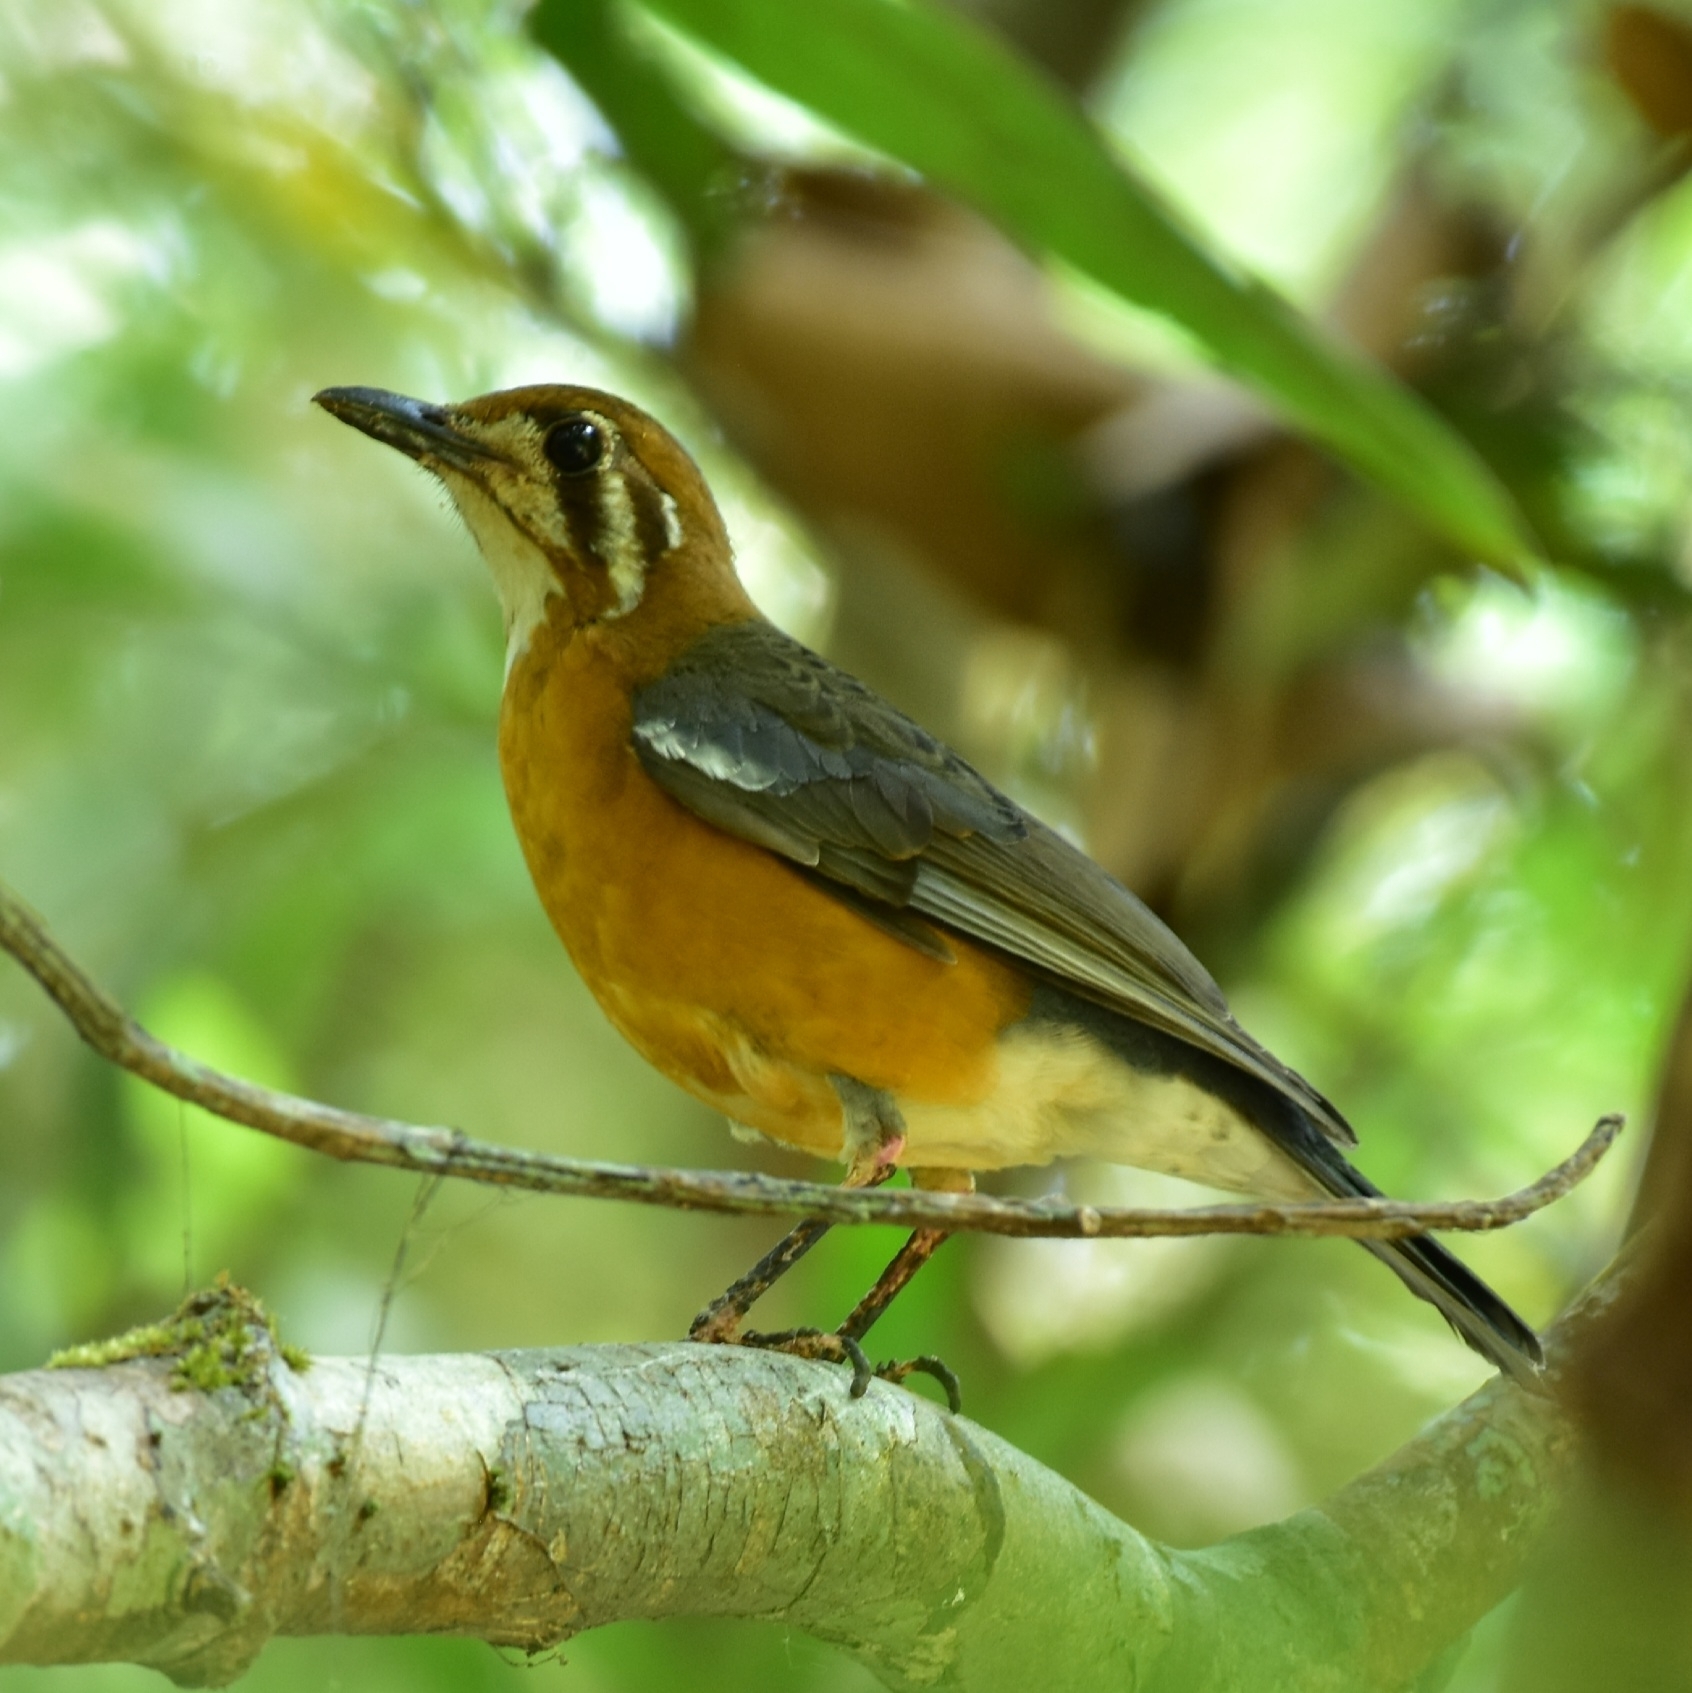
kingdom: Animalia
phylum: Chordata
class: Aves
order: Passeriformes
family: Turdidae
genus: Geokichla
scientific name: Geokichla citrina
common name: Orange-headed thrush
